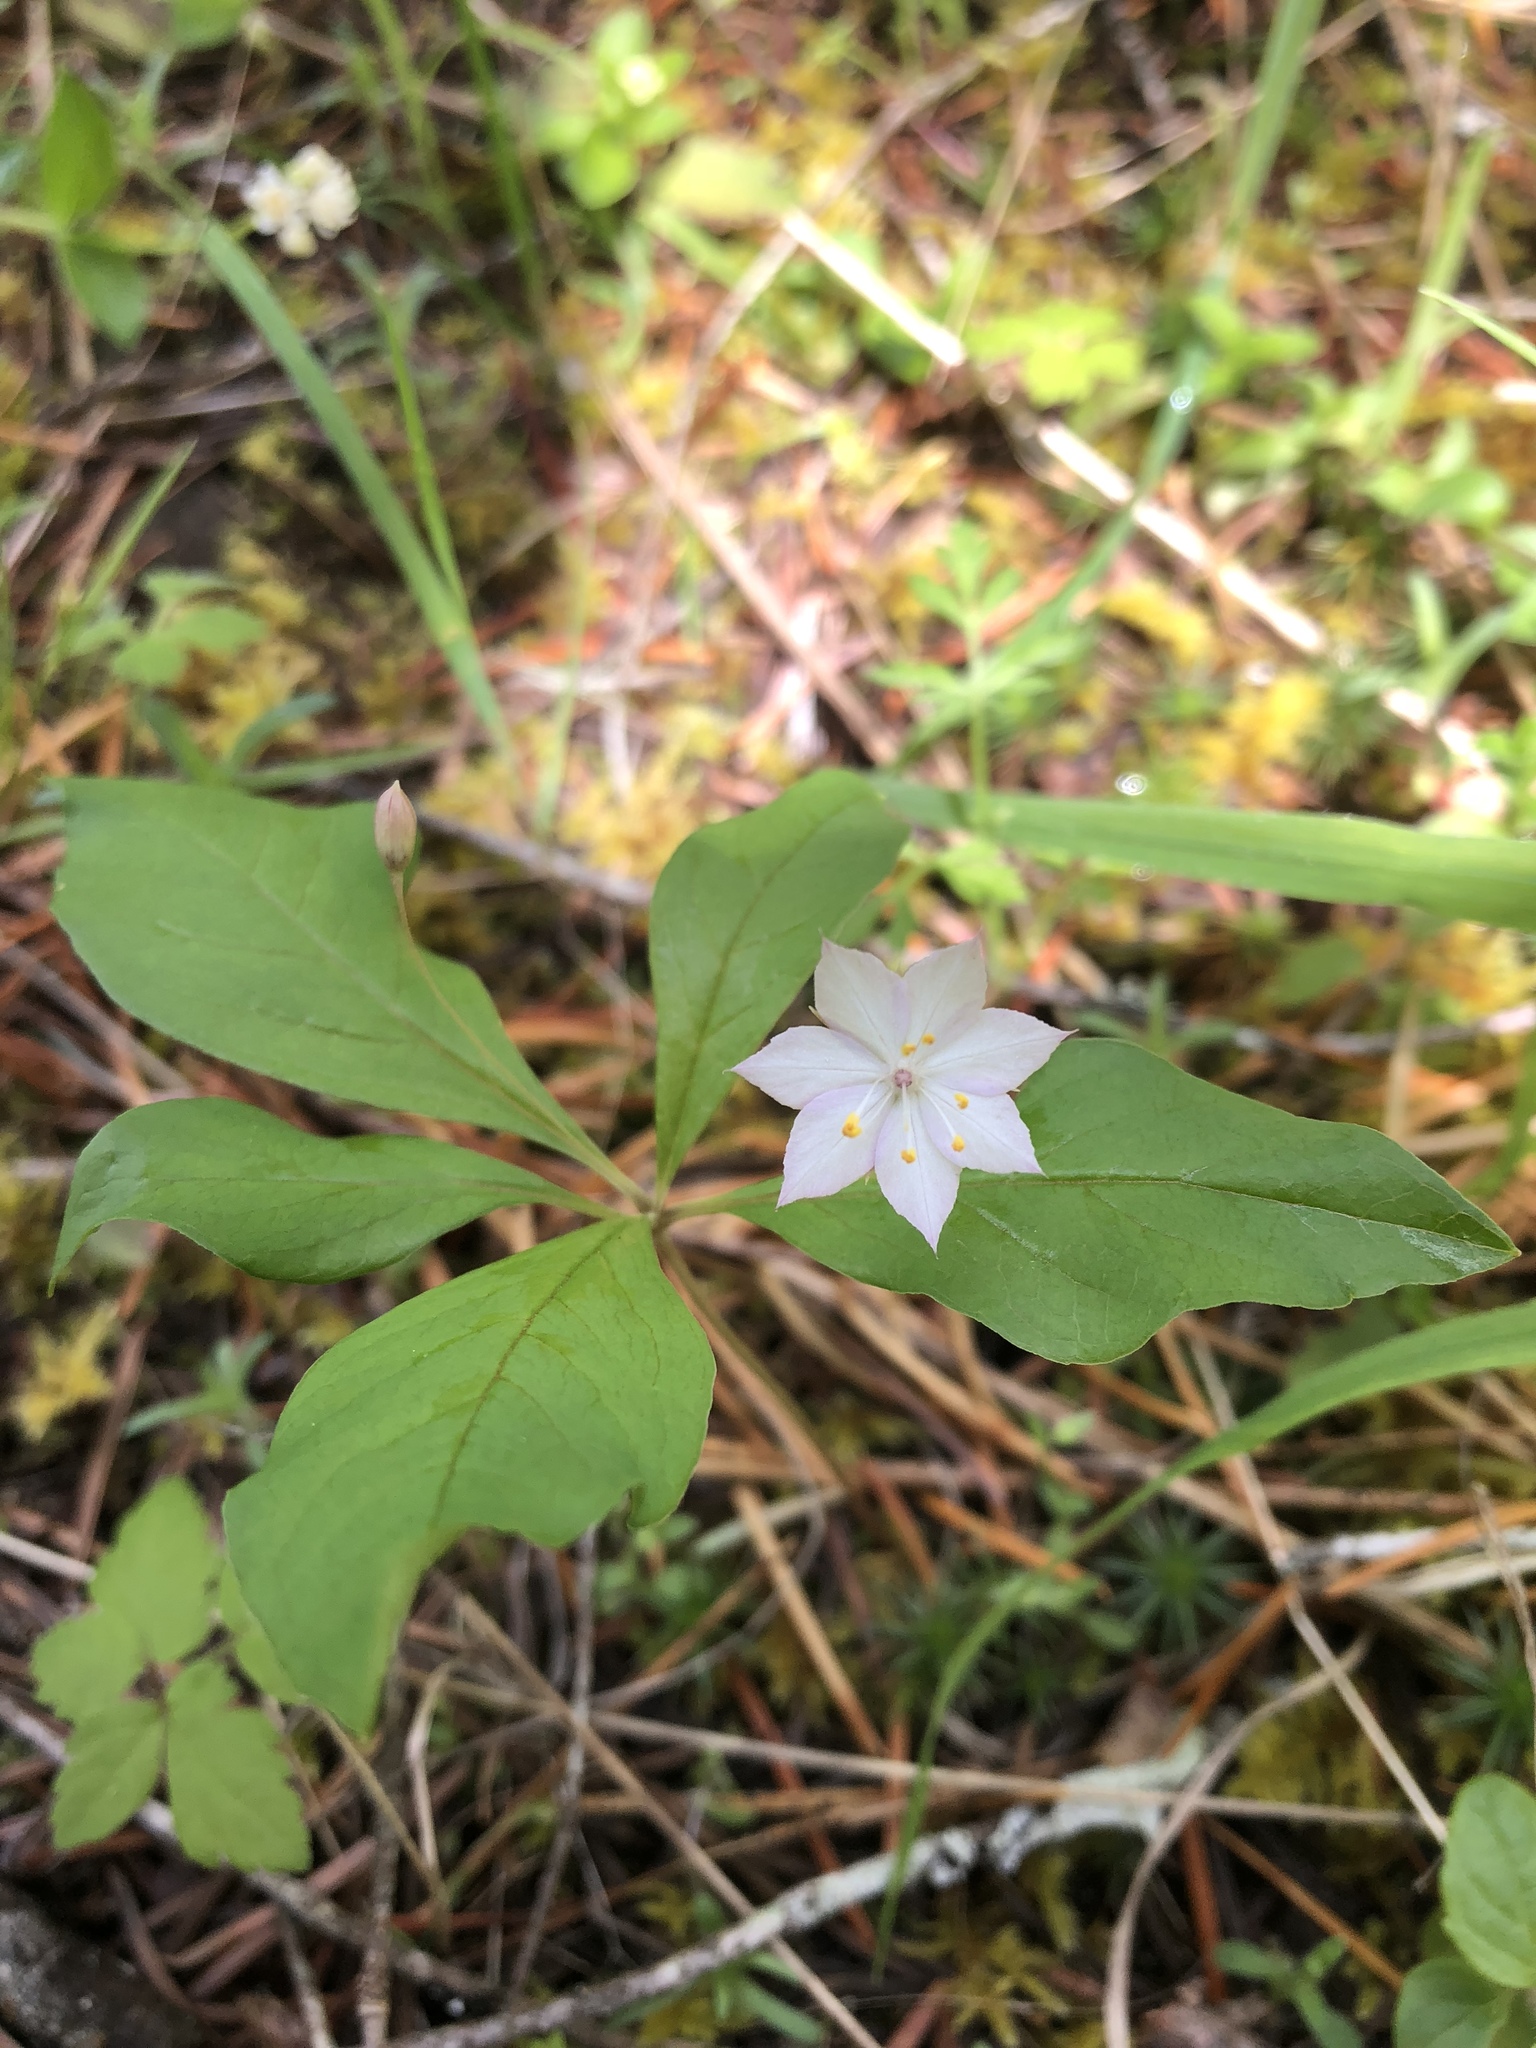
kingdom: Plantae
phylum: Tracheophyta
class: Magnoliopsida
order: Ericales
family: Primulaceae
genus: Lysimachia
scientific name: Lysimachia latifolia
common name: Pacific starflower
